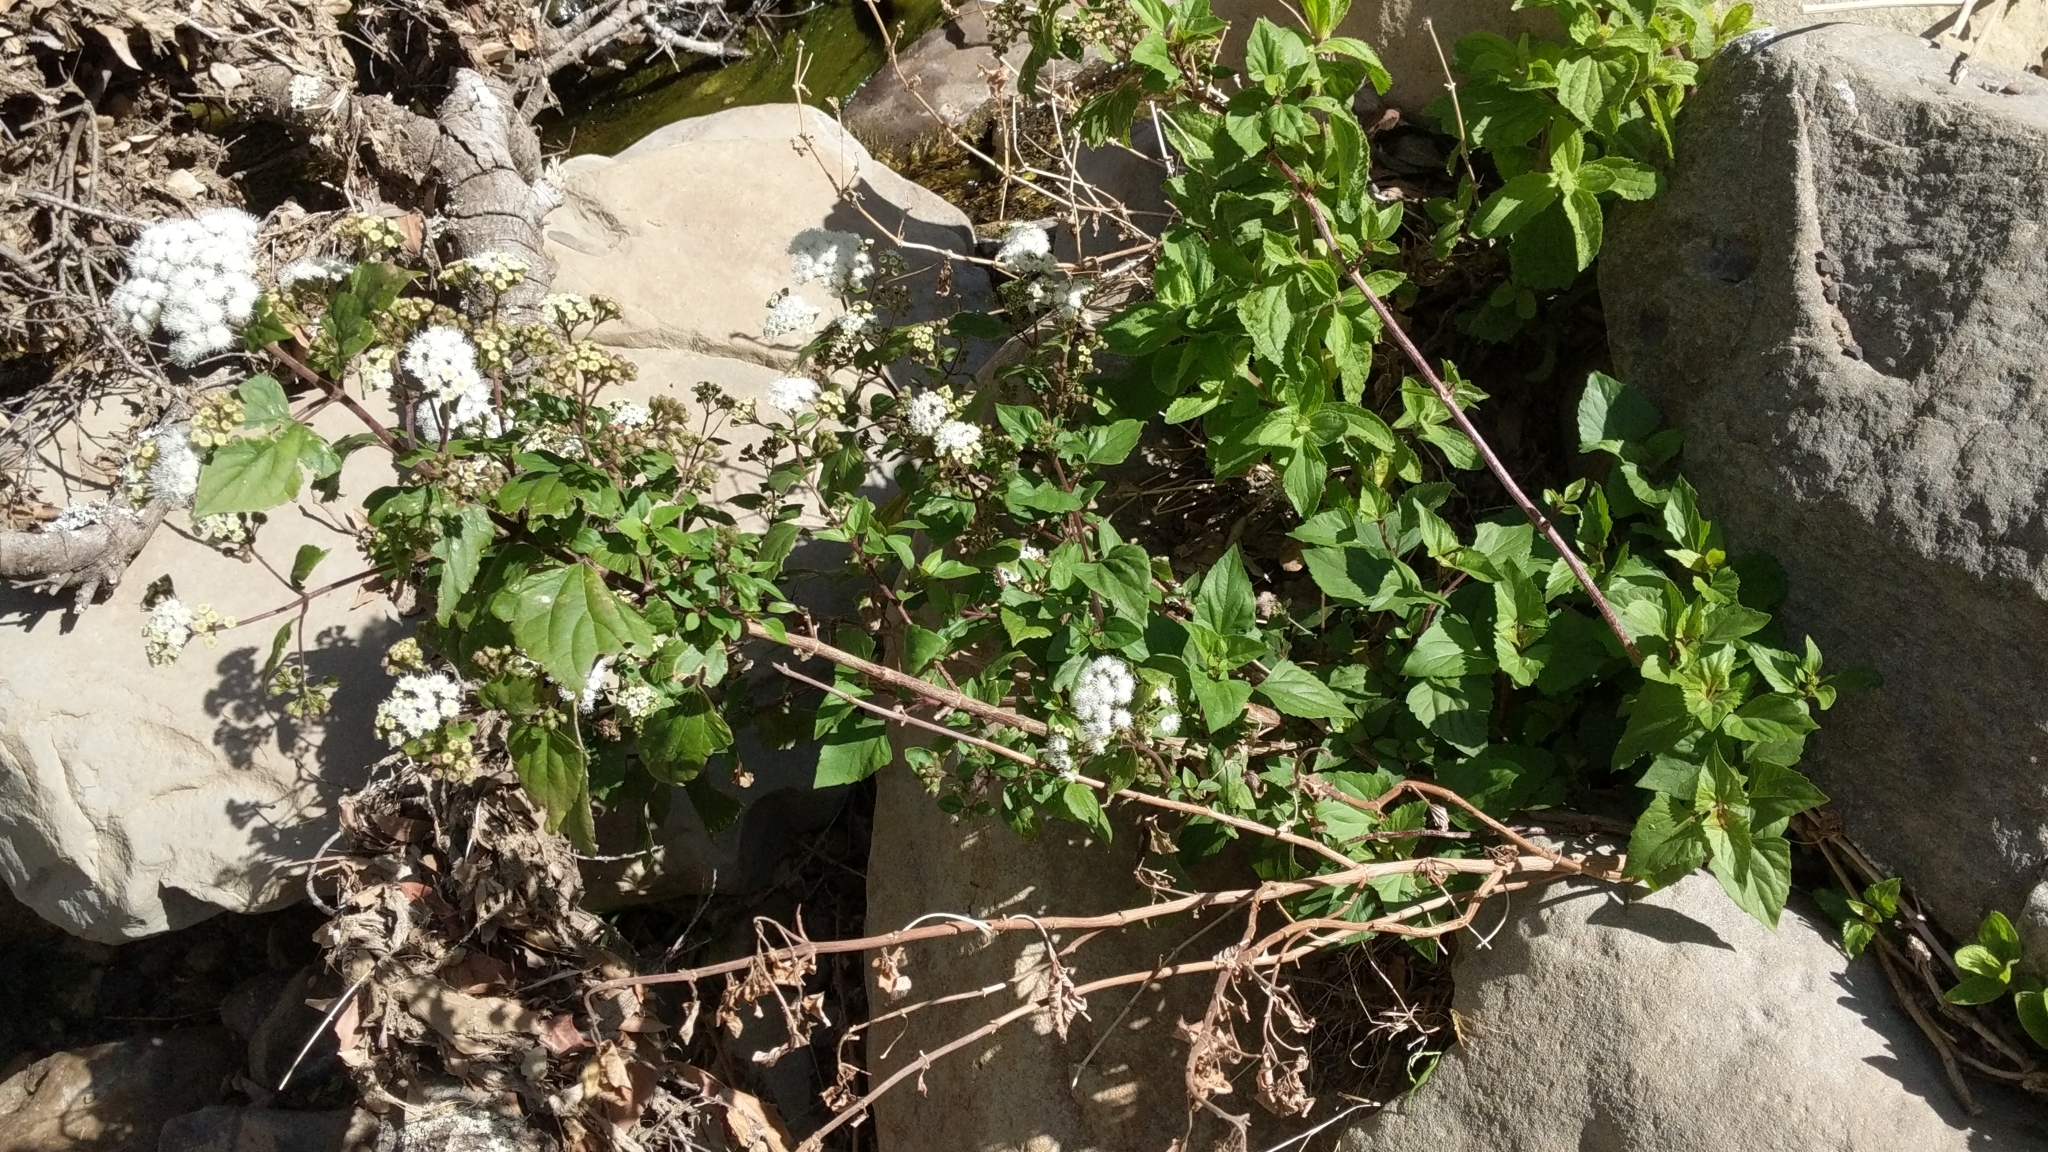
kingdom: Plantae
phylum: Tracheophyta
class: Magnoliopsida
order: Asterales
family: Asteraceae
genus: Ageratina
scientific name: Ageratina adenophora
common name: Sticky snakeroot
